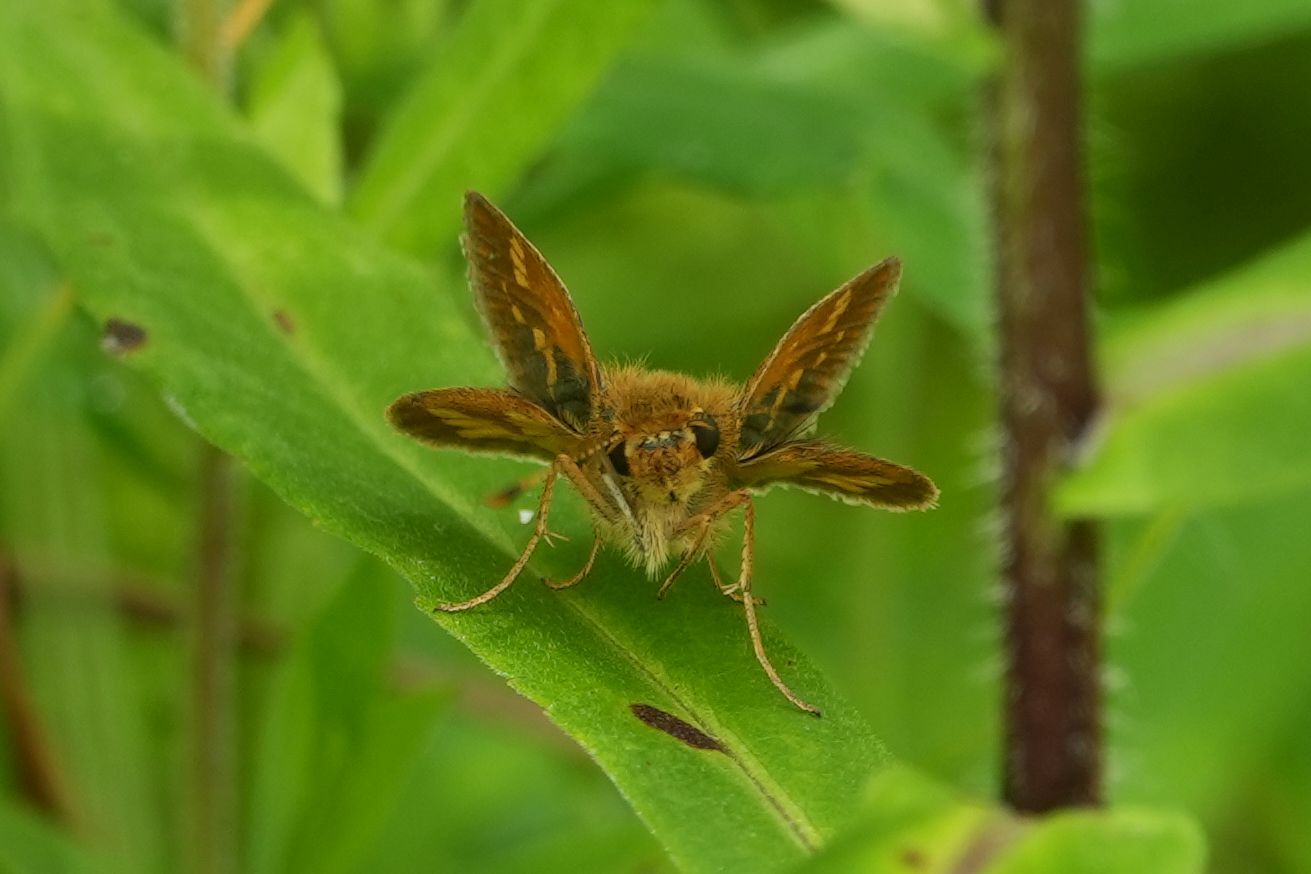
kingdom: Animalia
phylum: Arthropoda
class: Insecta
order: Lepidoptera
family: Hesperiidae
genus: Polites
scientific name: Polites coras
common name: Peck's skipper
